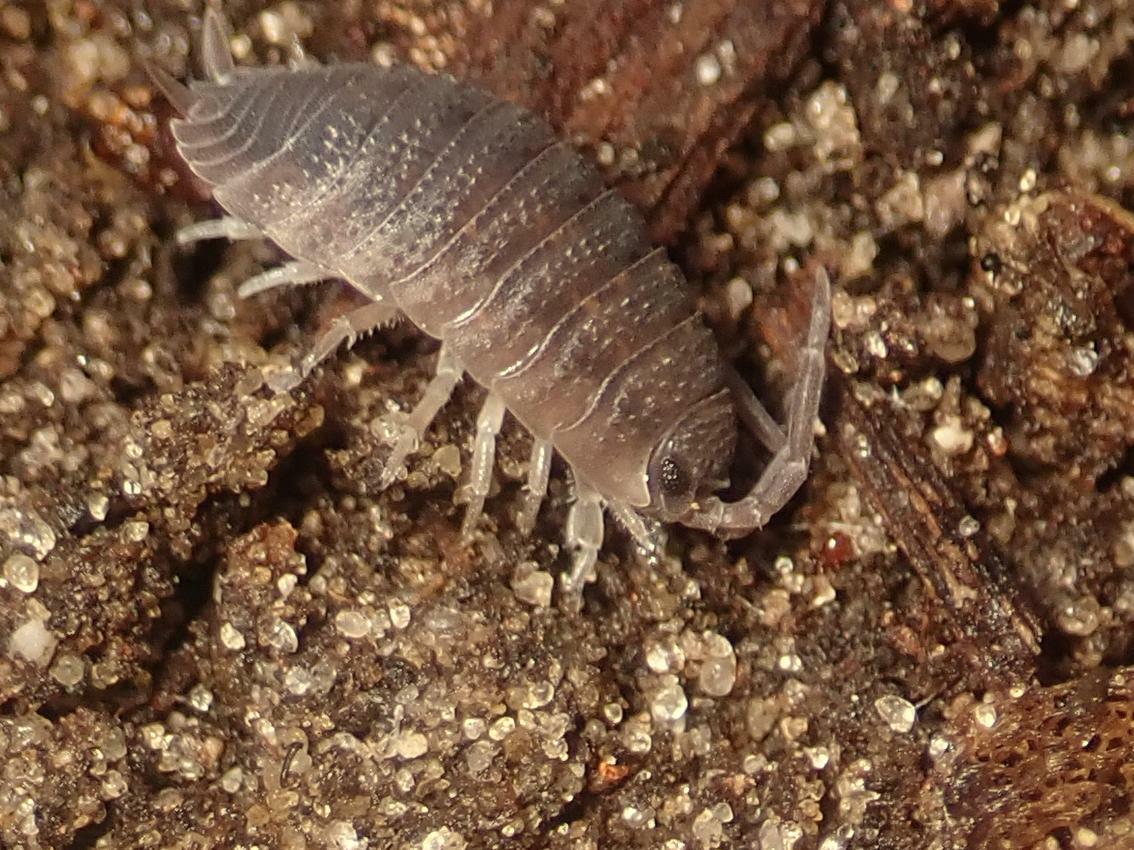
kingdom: Animalia
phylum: Arthropoda
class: Malacostraca
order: Isopoda
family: Porcellionidae
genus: Porcellio
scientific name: Porcellio scaber
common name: Common rough woodlouse
